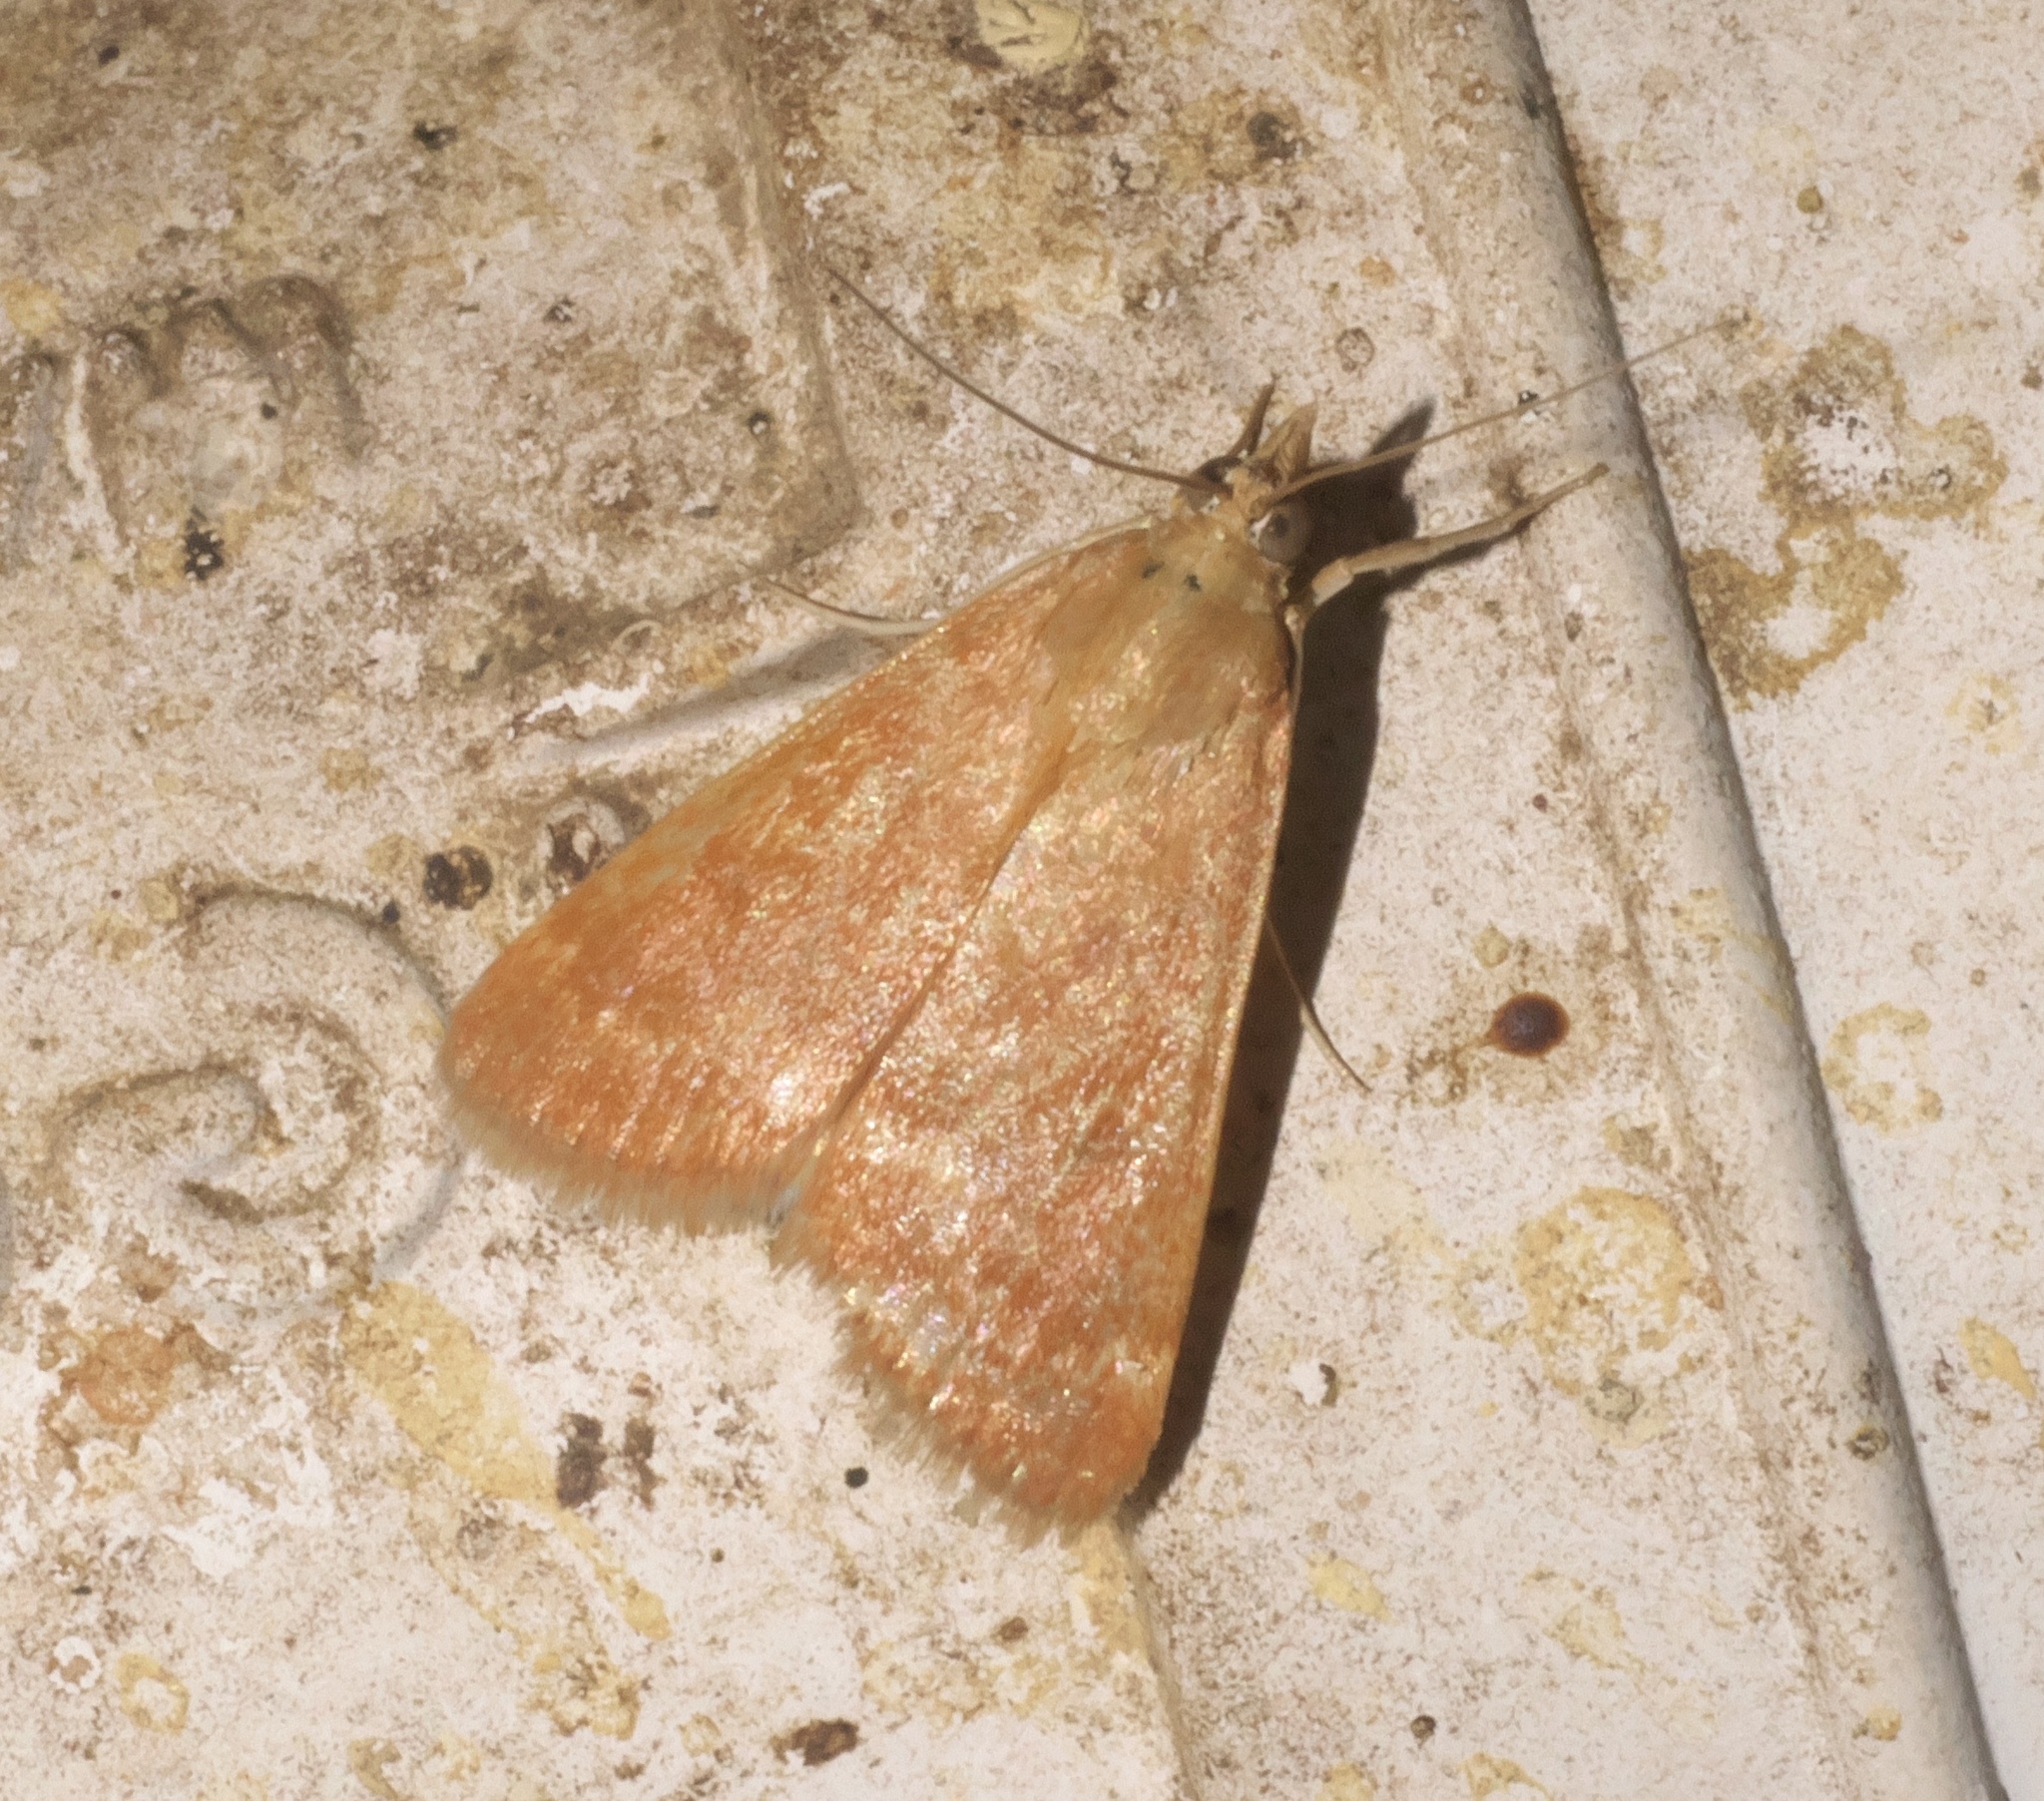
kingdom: Animalia
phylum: Arthropoda
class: Insecta
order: Lepidoptera
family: Crambidae
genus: Achyra
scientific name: Achyra rantalis
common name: Garden webworm
